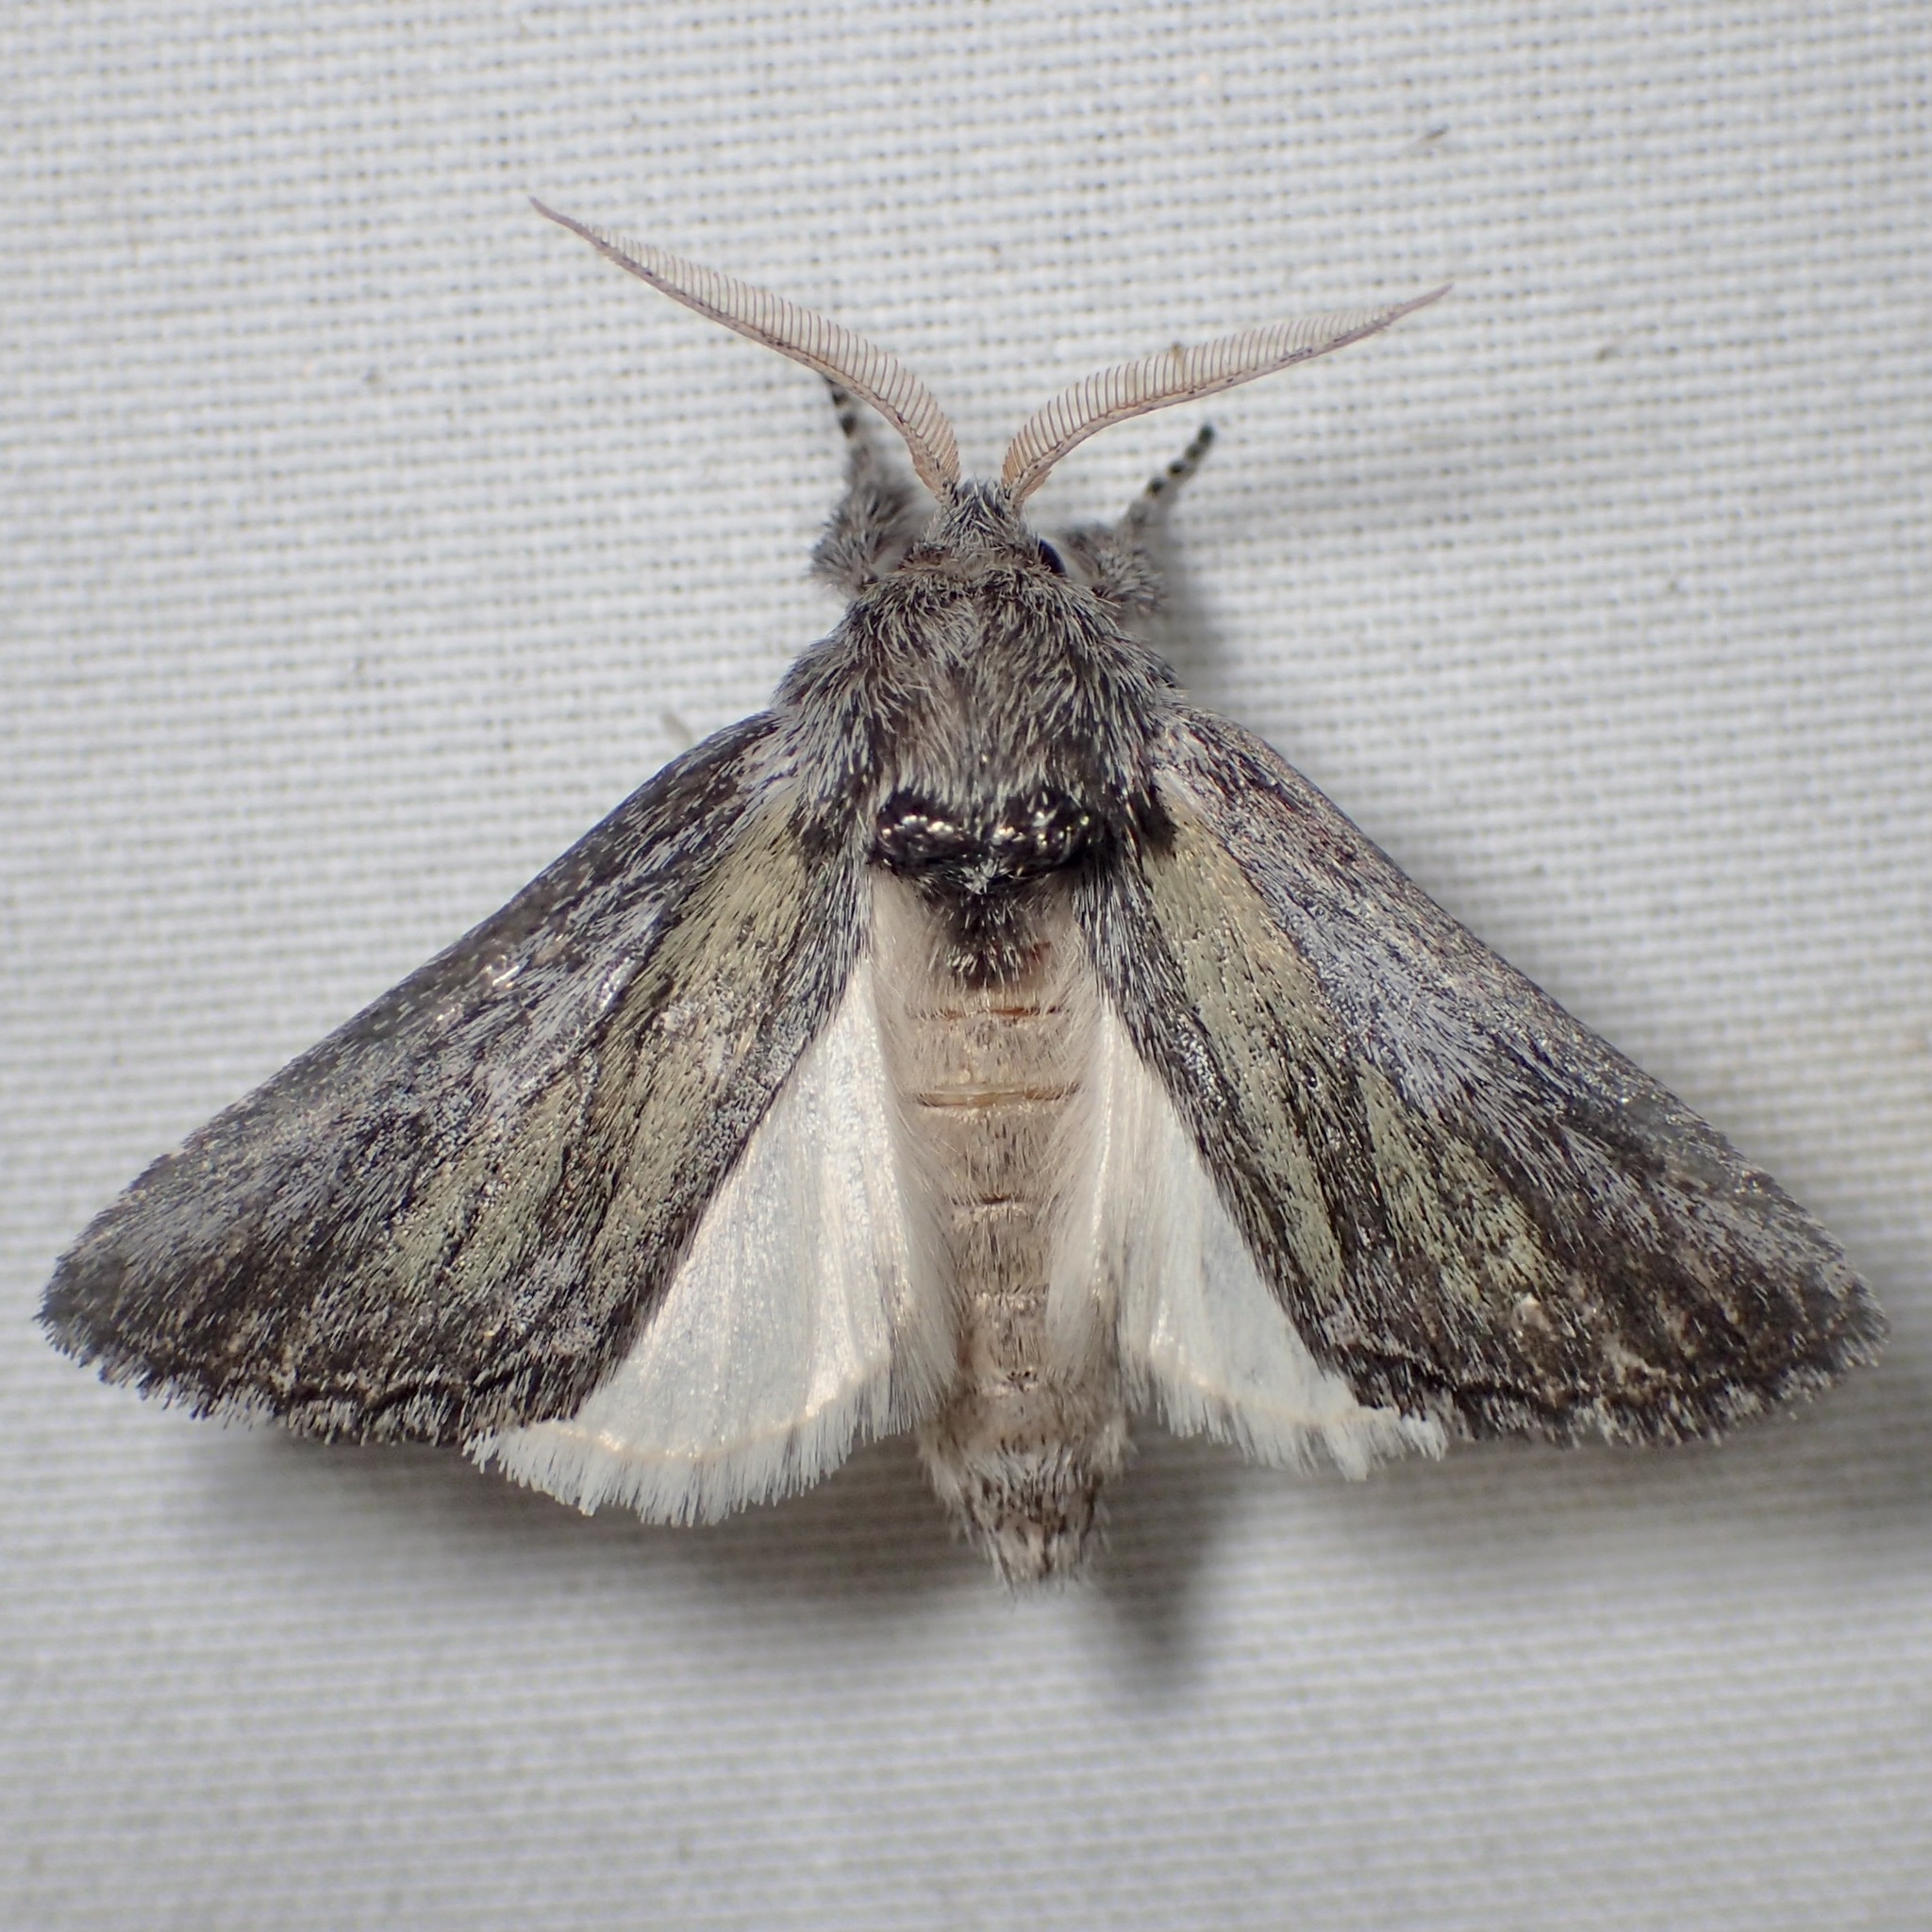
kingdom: Animalia
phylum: Arthropoda
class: Insecta
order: Lepidoptera
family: Notodontidae
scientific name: Notodontidae
